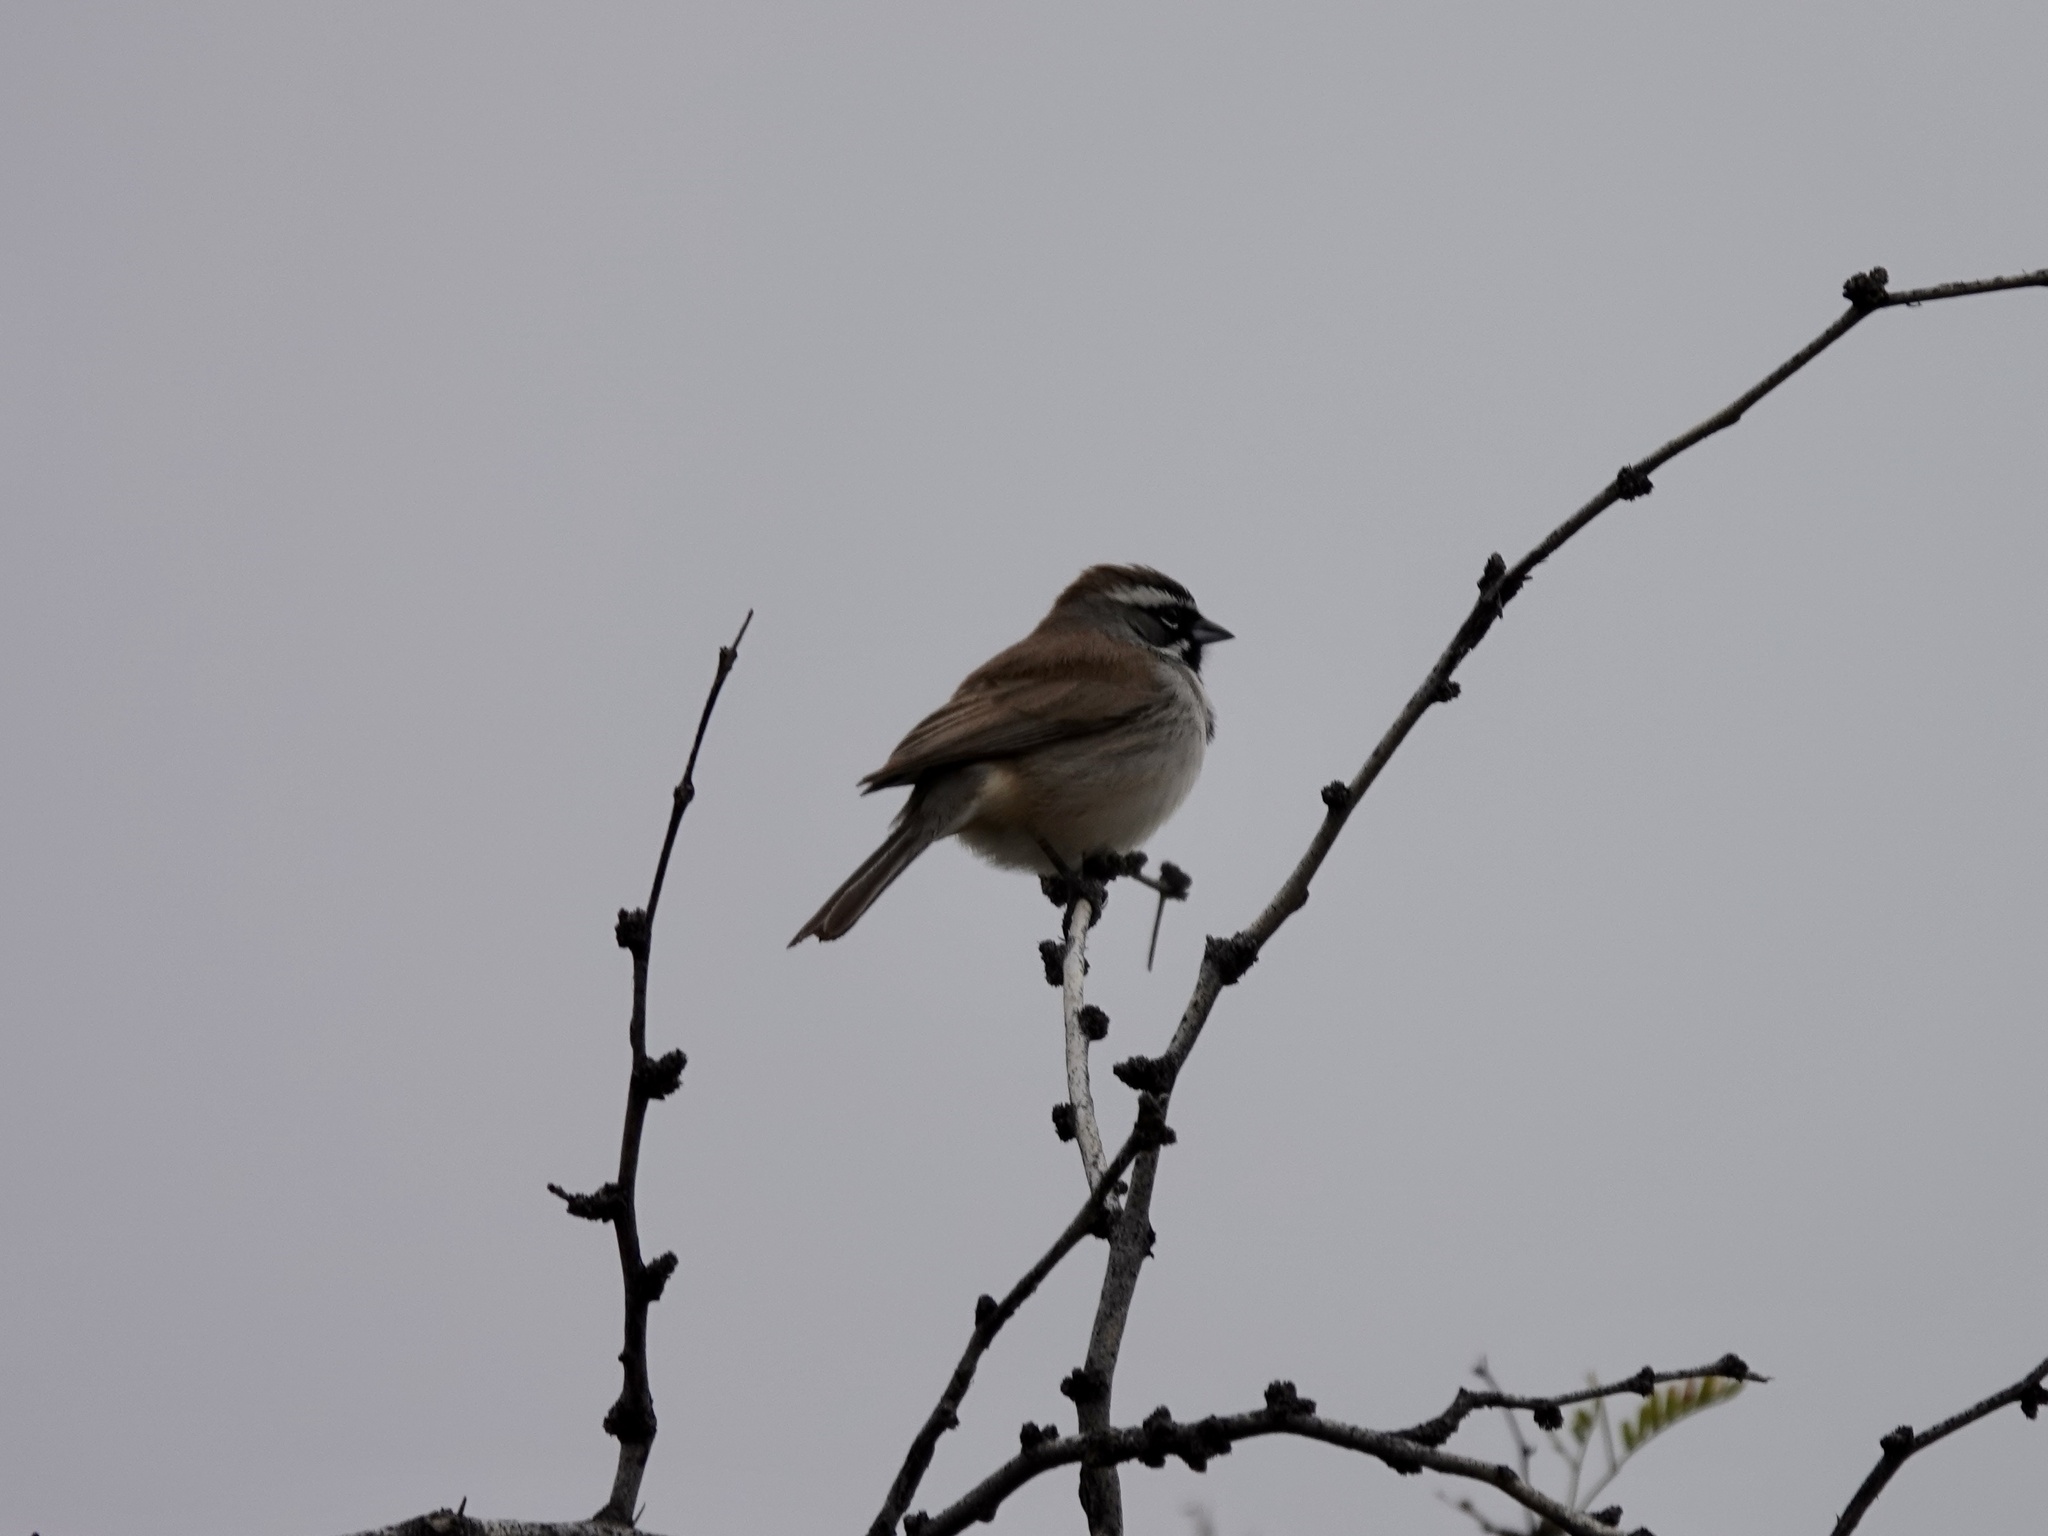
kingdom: Animalia
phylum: Chordata
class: Aves
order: Passeriformes
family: Passerellidae
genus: Amphispiza
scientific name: Amphispiza bilineata
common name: Black-throated sparrow
